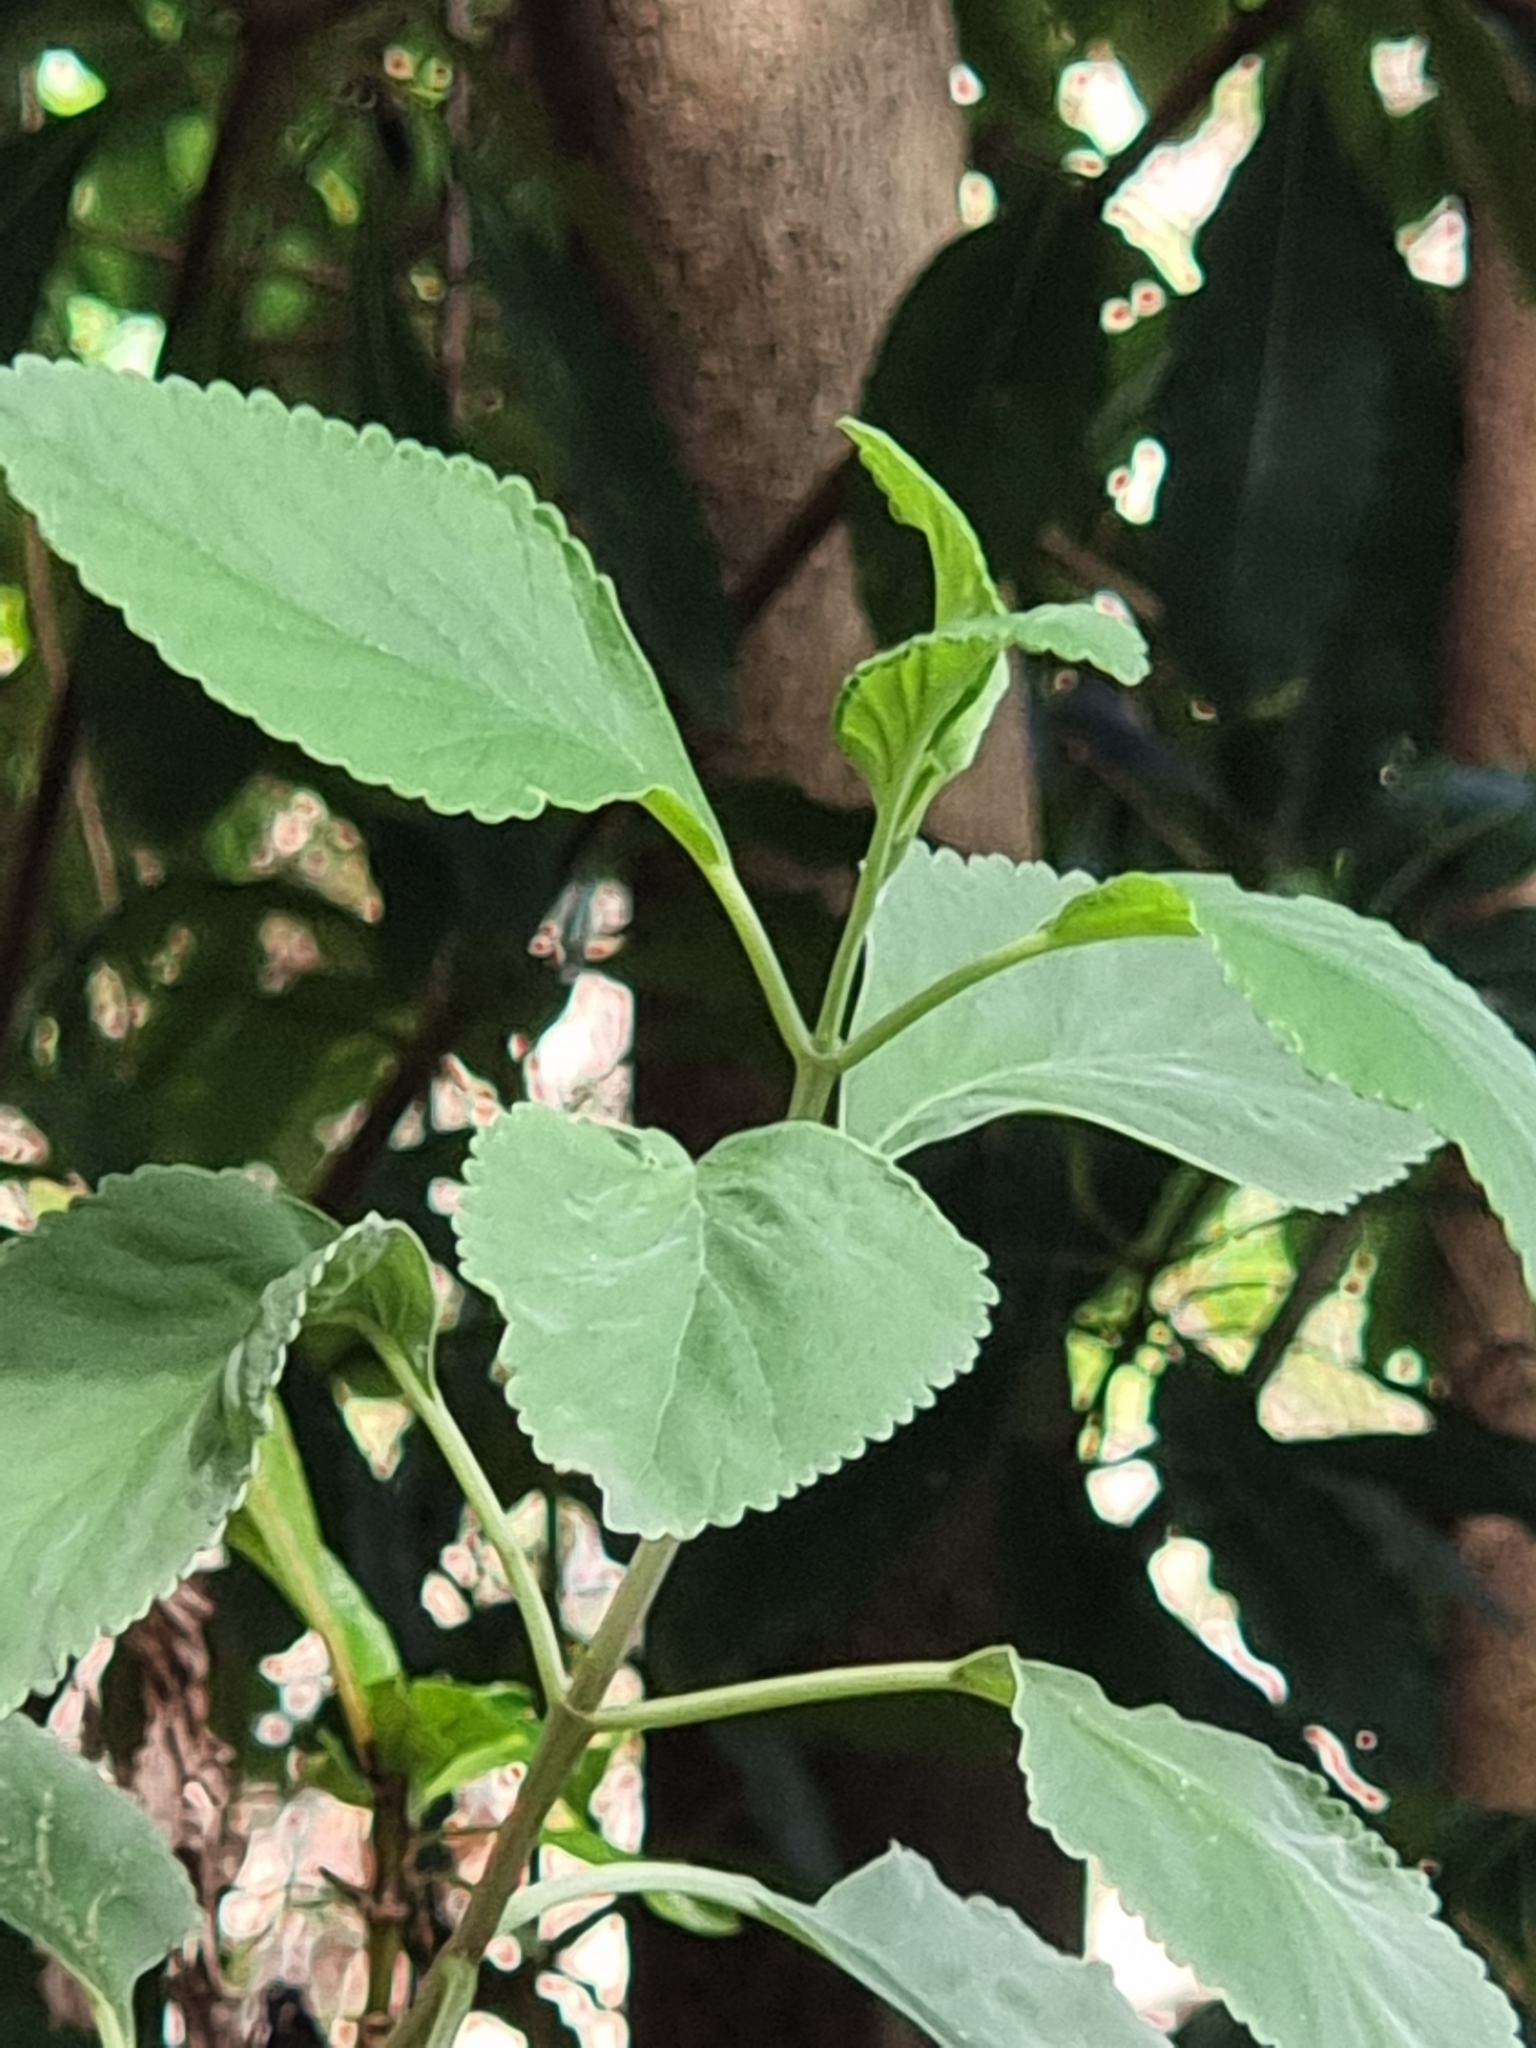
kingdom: Plantae
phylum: Tracheophyta
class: Magnoliopsida
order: Lamiales
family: Lamiaceae
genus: Teucrium
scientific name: Teucrium betonicum
